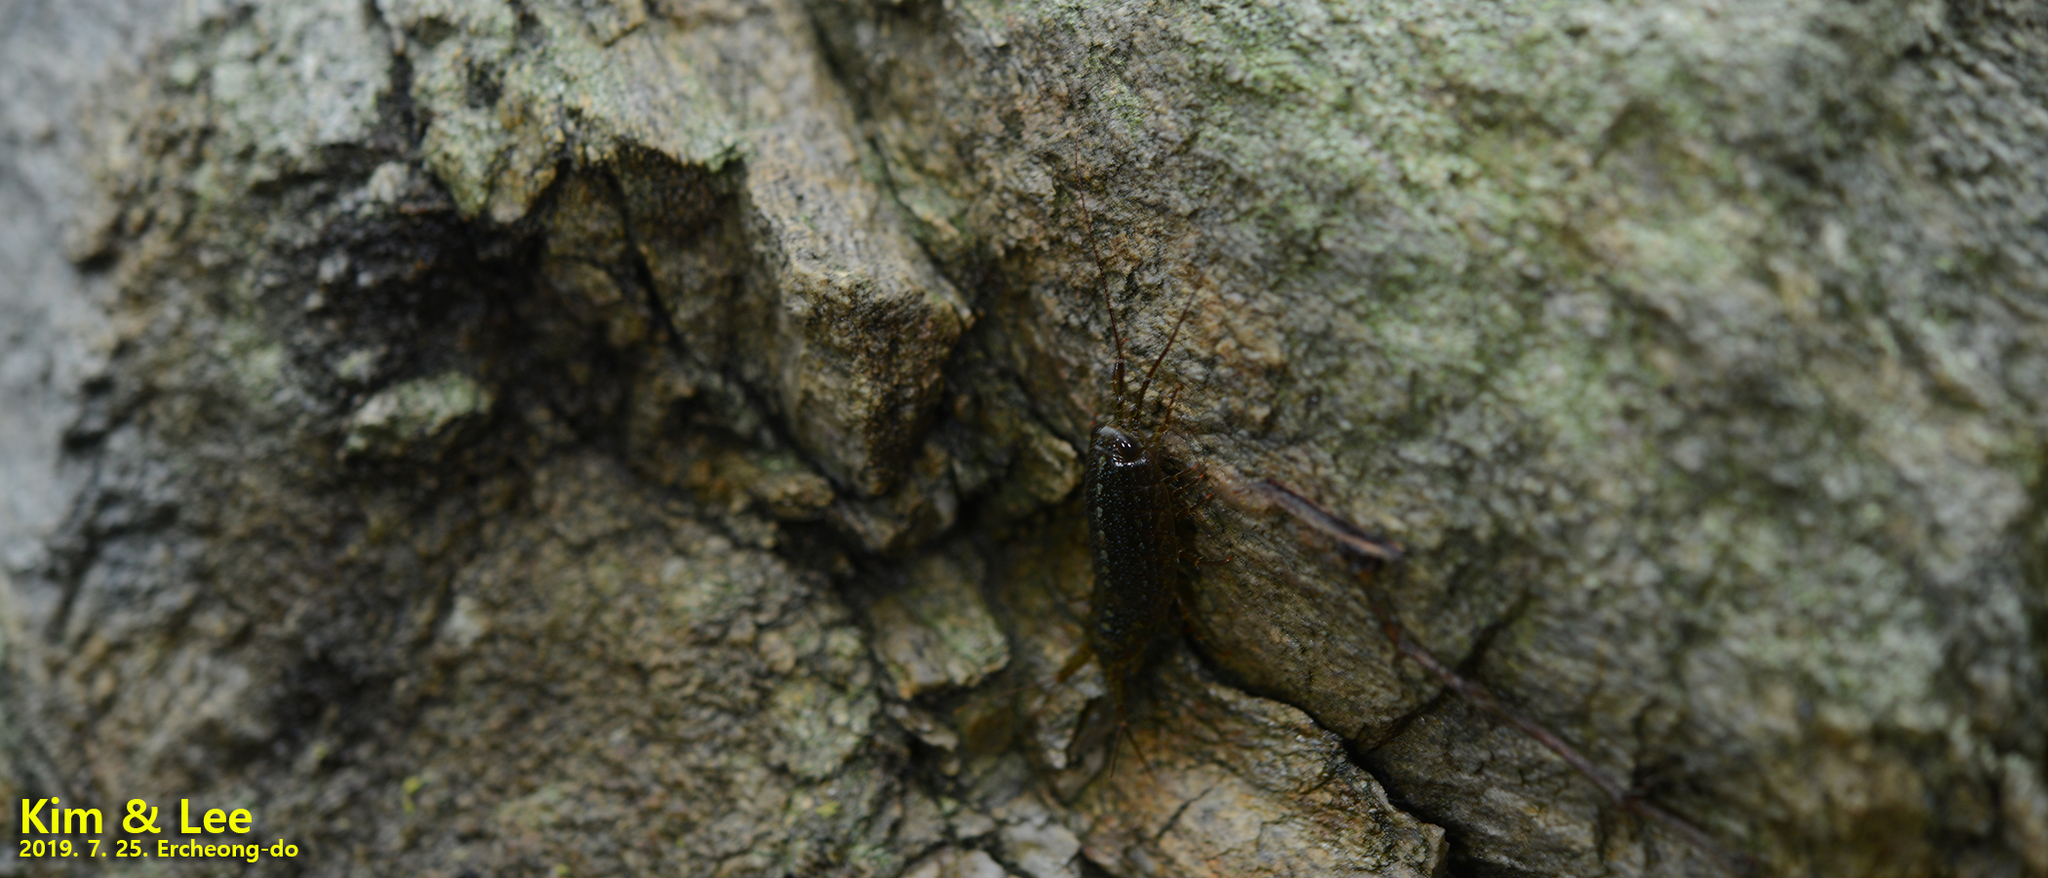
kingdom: Animalia
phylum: Arthropoda
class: Malacostraca
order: Isopoda
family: Ligiidae
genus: Ligia
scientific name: Ligia exotica
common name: Wharf roach
